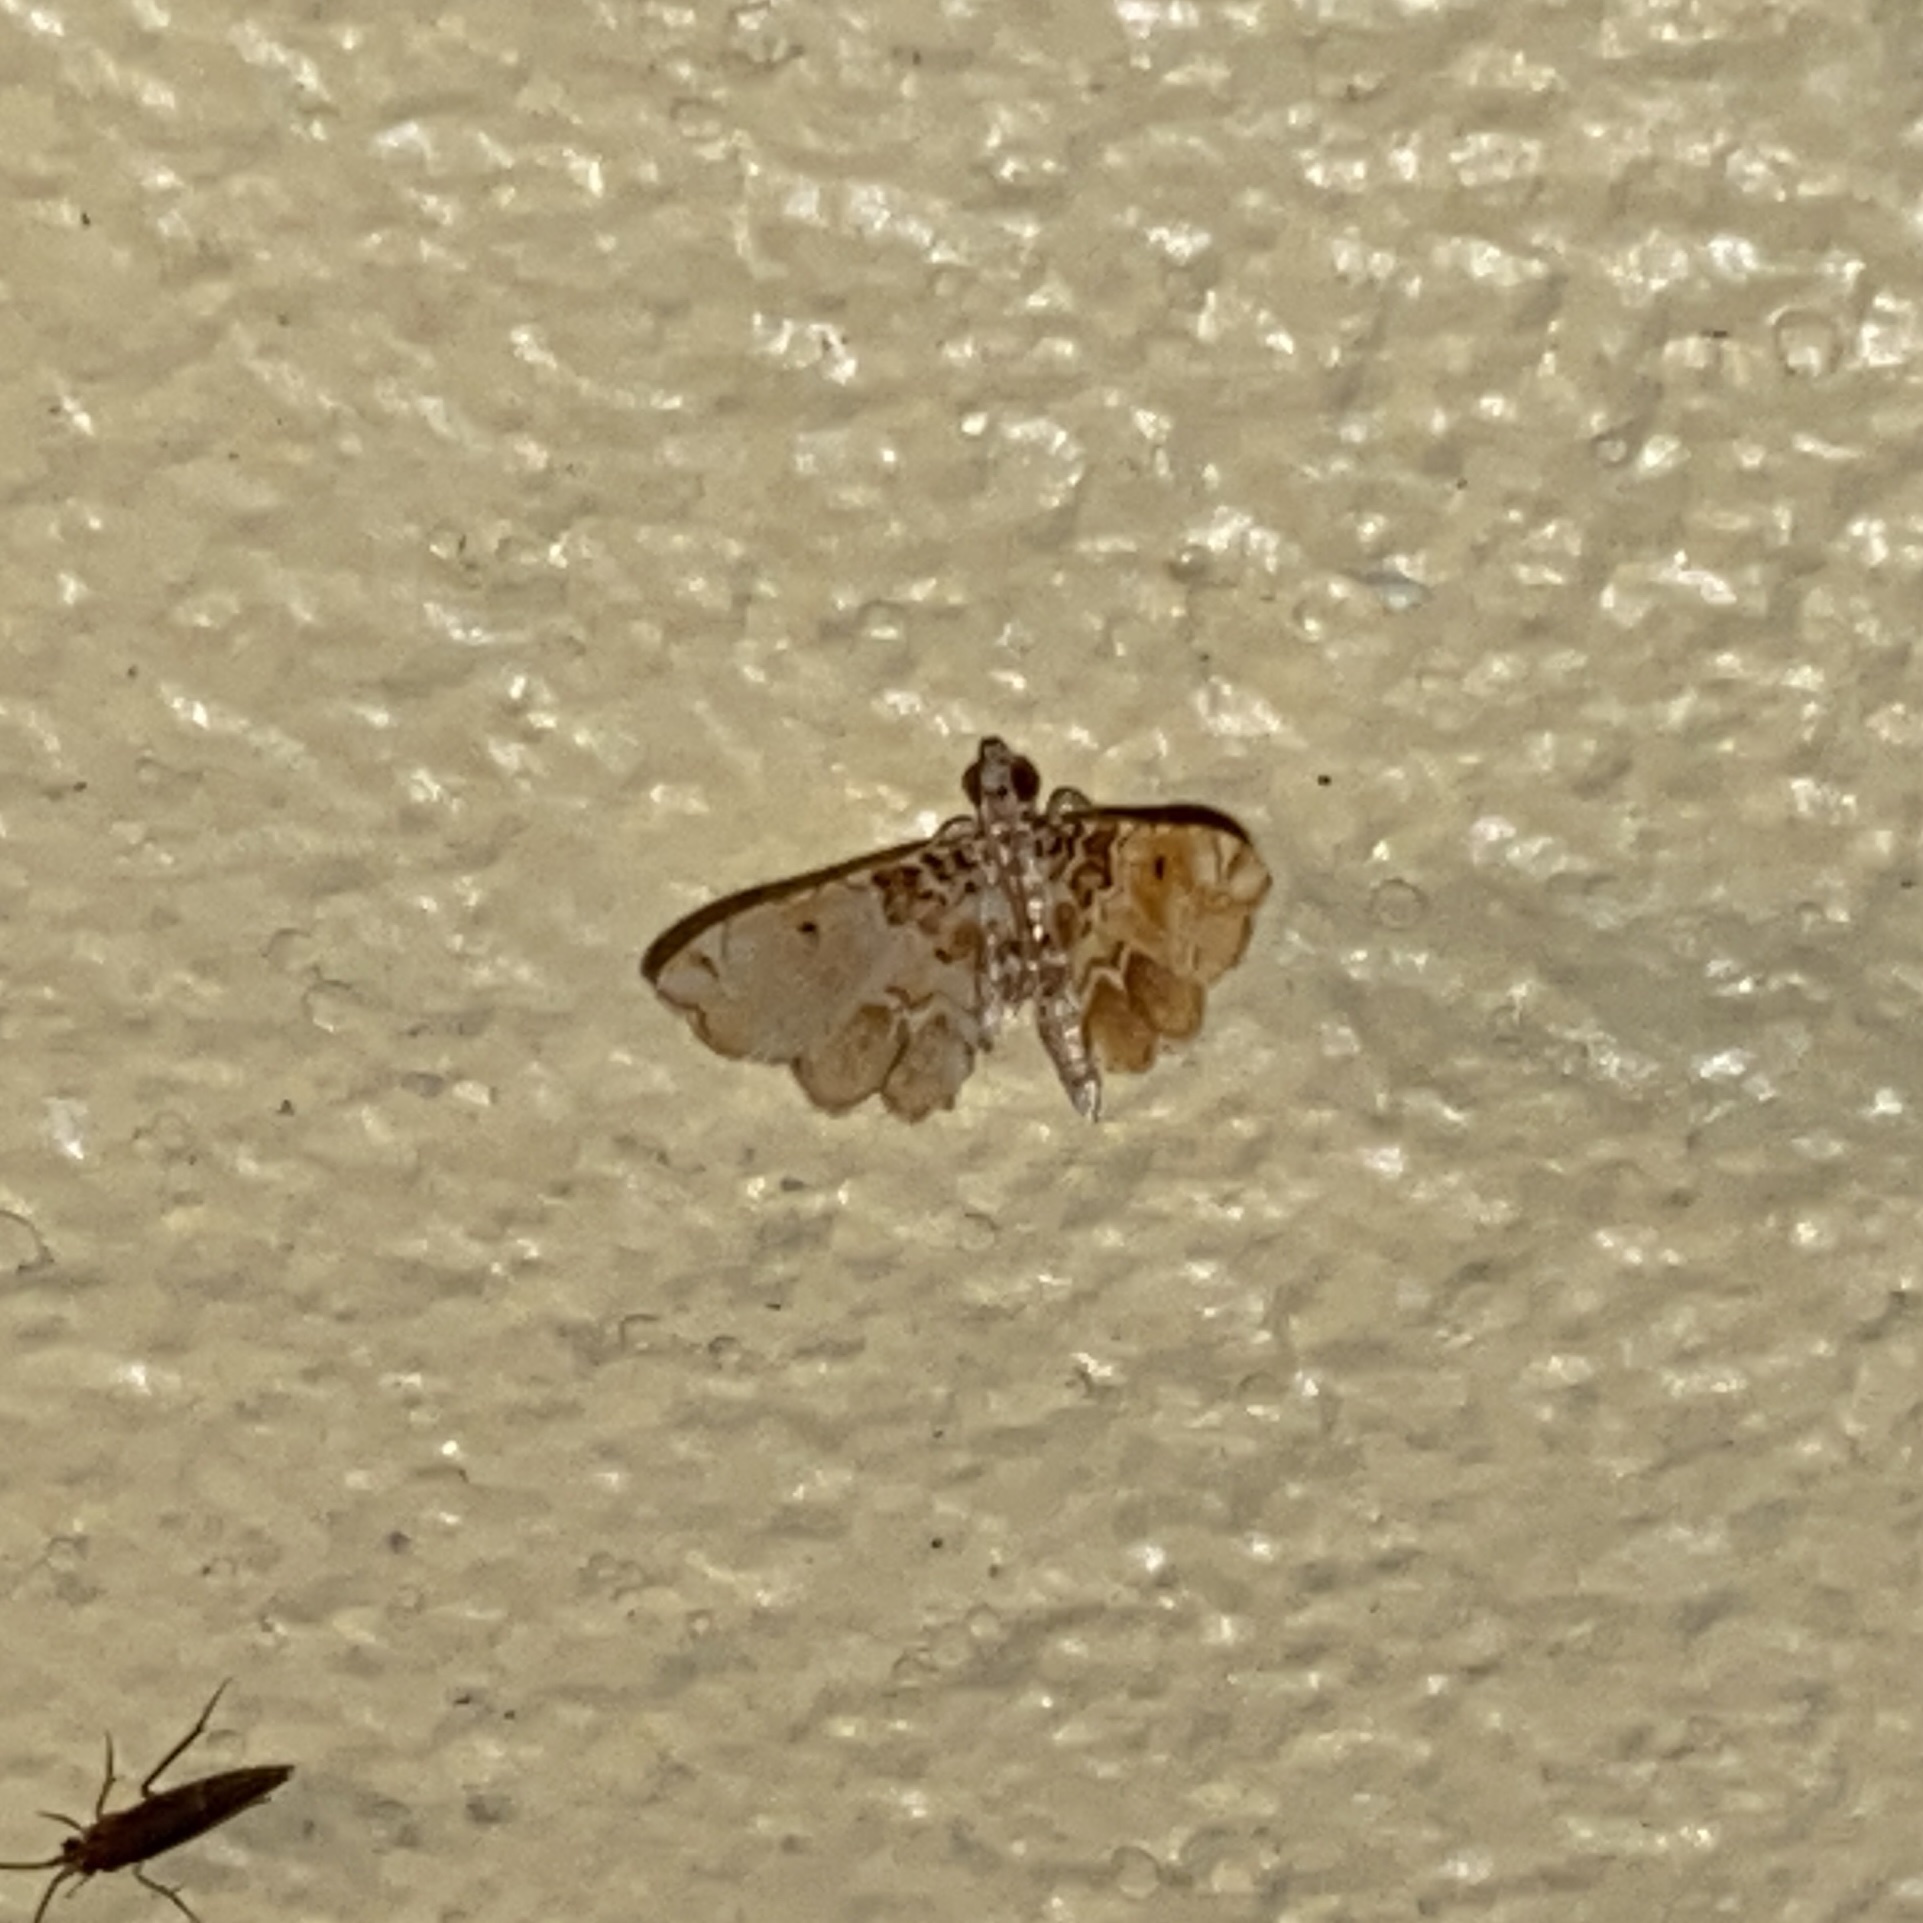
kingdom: Animalia
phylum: Arthropoda
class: Insecta
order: Lepidoptera
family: Crambidae
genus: Sufetula
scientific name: Sufetula diminutalis
